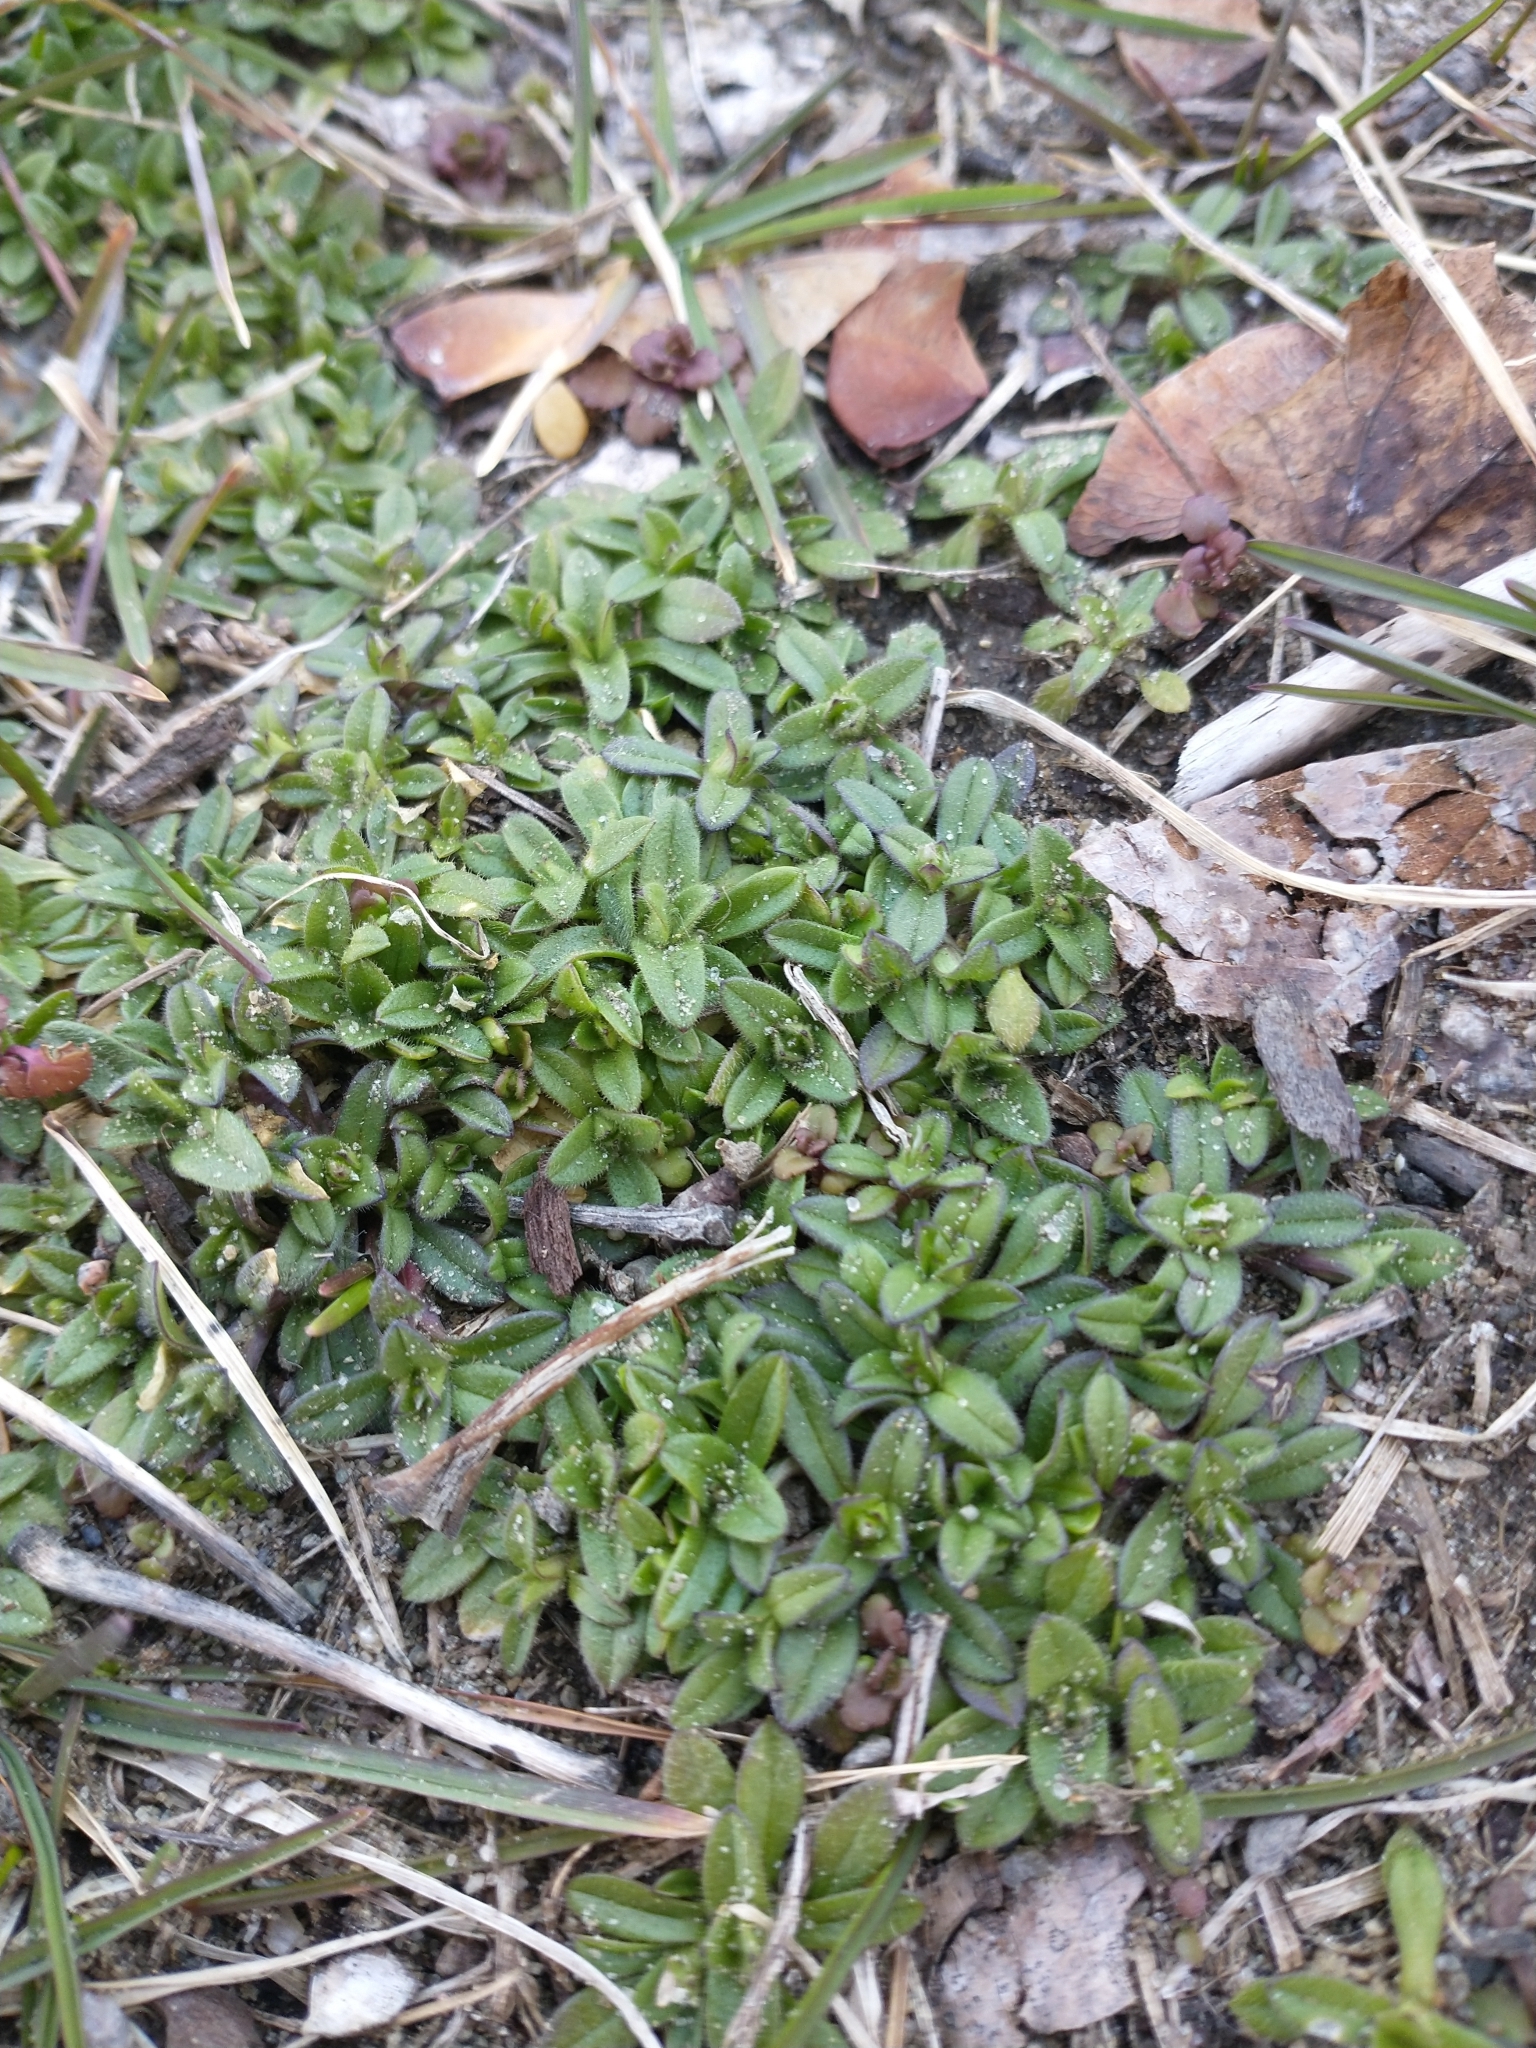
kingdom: Plantae
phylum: Tracheophyta
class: Magnoliopsida
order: Caryophyllales
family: Caryophyllaceae
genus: Cerastium
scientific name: Cerastium fontanum
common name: Common mouse-ear
